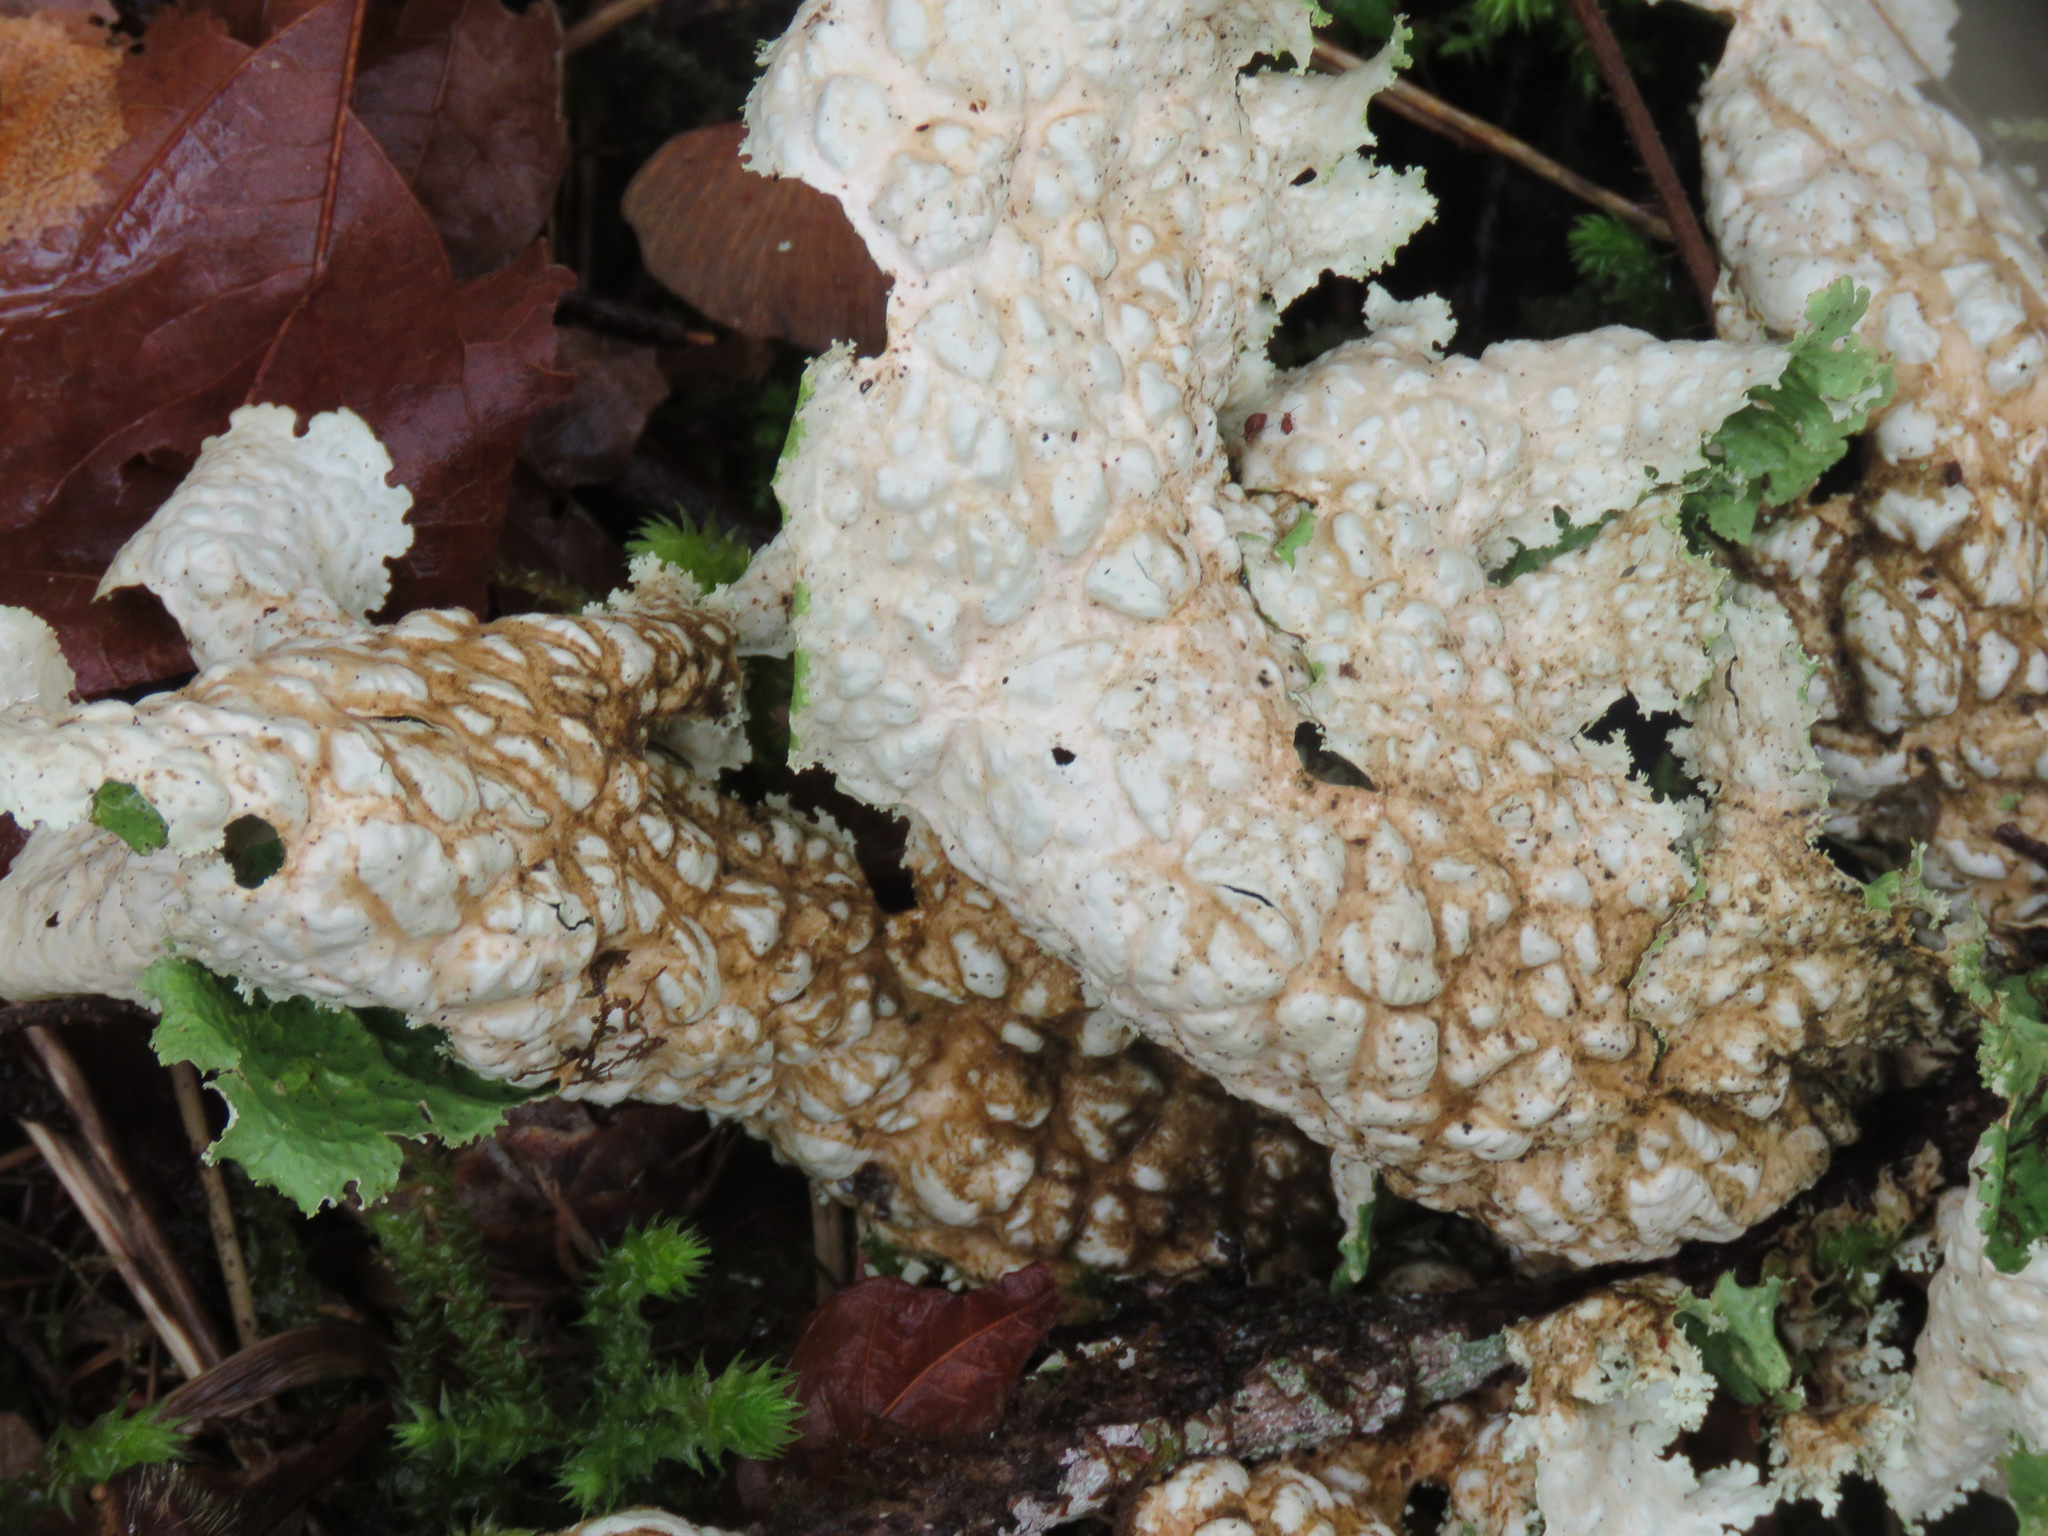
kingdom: Fungi
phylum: Ascomycota
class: Lecanoromycetes
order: Peltigerales
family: Lobariaceae
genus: Lobaria
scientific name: Lobaria oregana
